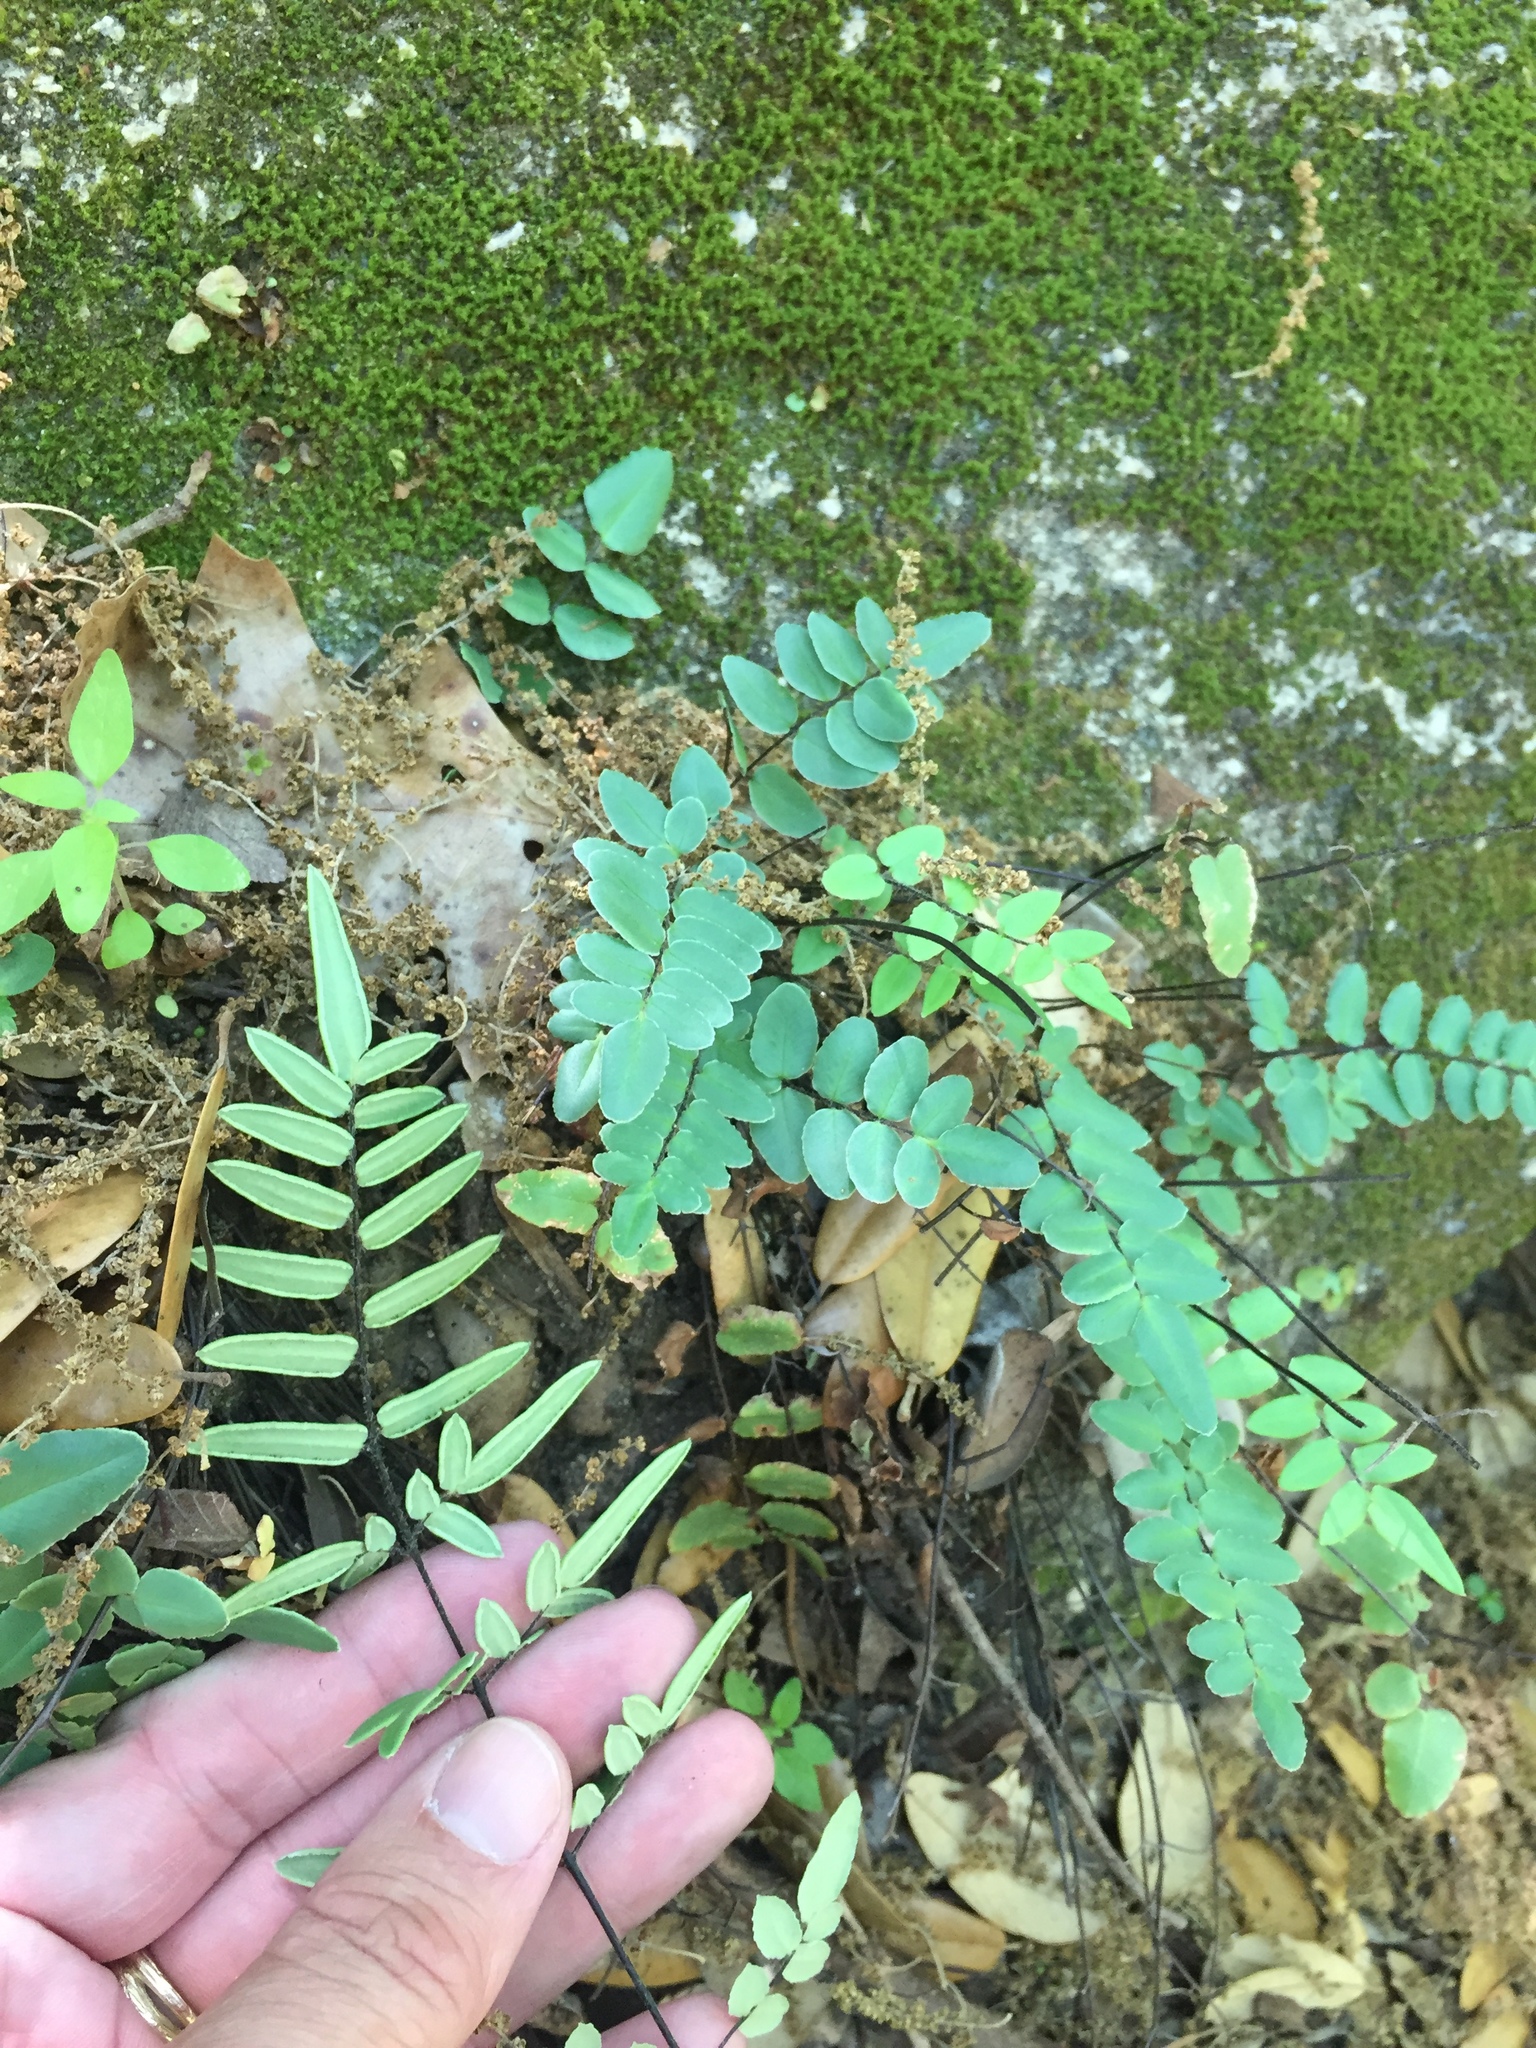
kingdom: Plantae
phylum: Tracheophyta
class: Polypodiopsida
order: Polypodiales
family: Pteridaceae
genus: Pellaea
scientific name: Pellaea atropurpurea
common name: Hairy cliffbrake
